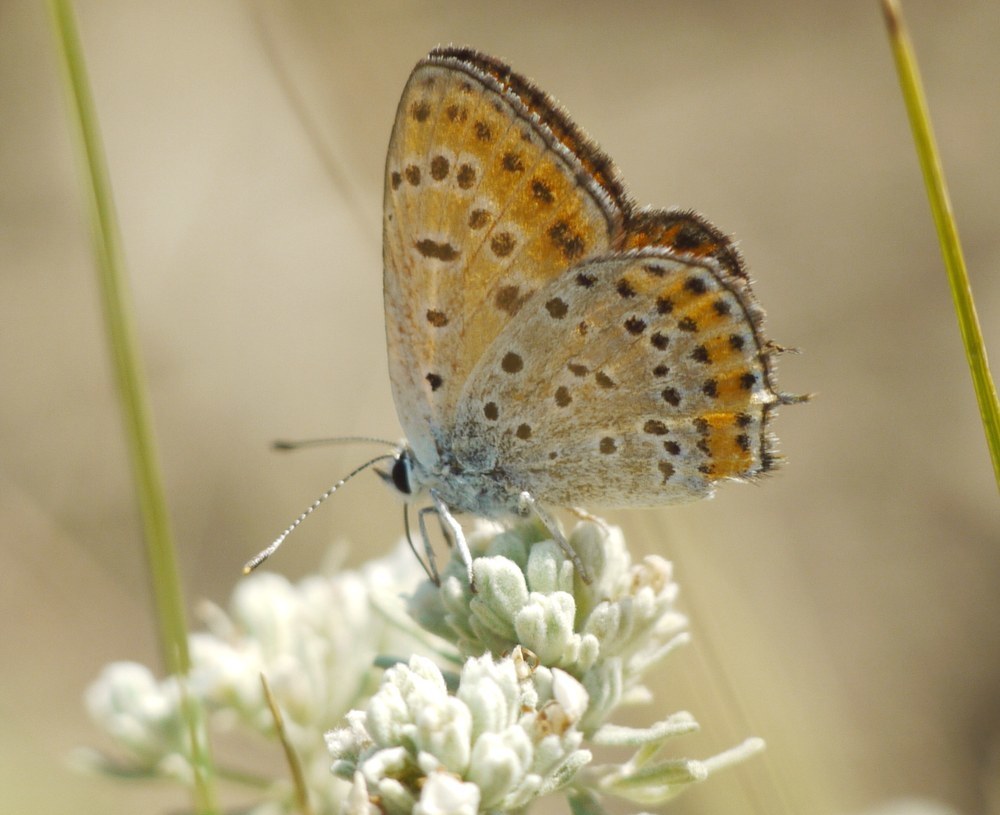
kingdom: Animalia
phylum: Arthropoda
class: Insecta
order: Lepidoptera
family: Lycaenidae
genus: Thersamonia
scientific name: Thersamonia thersamon
